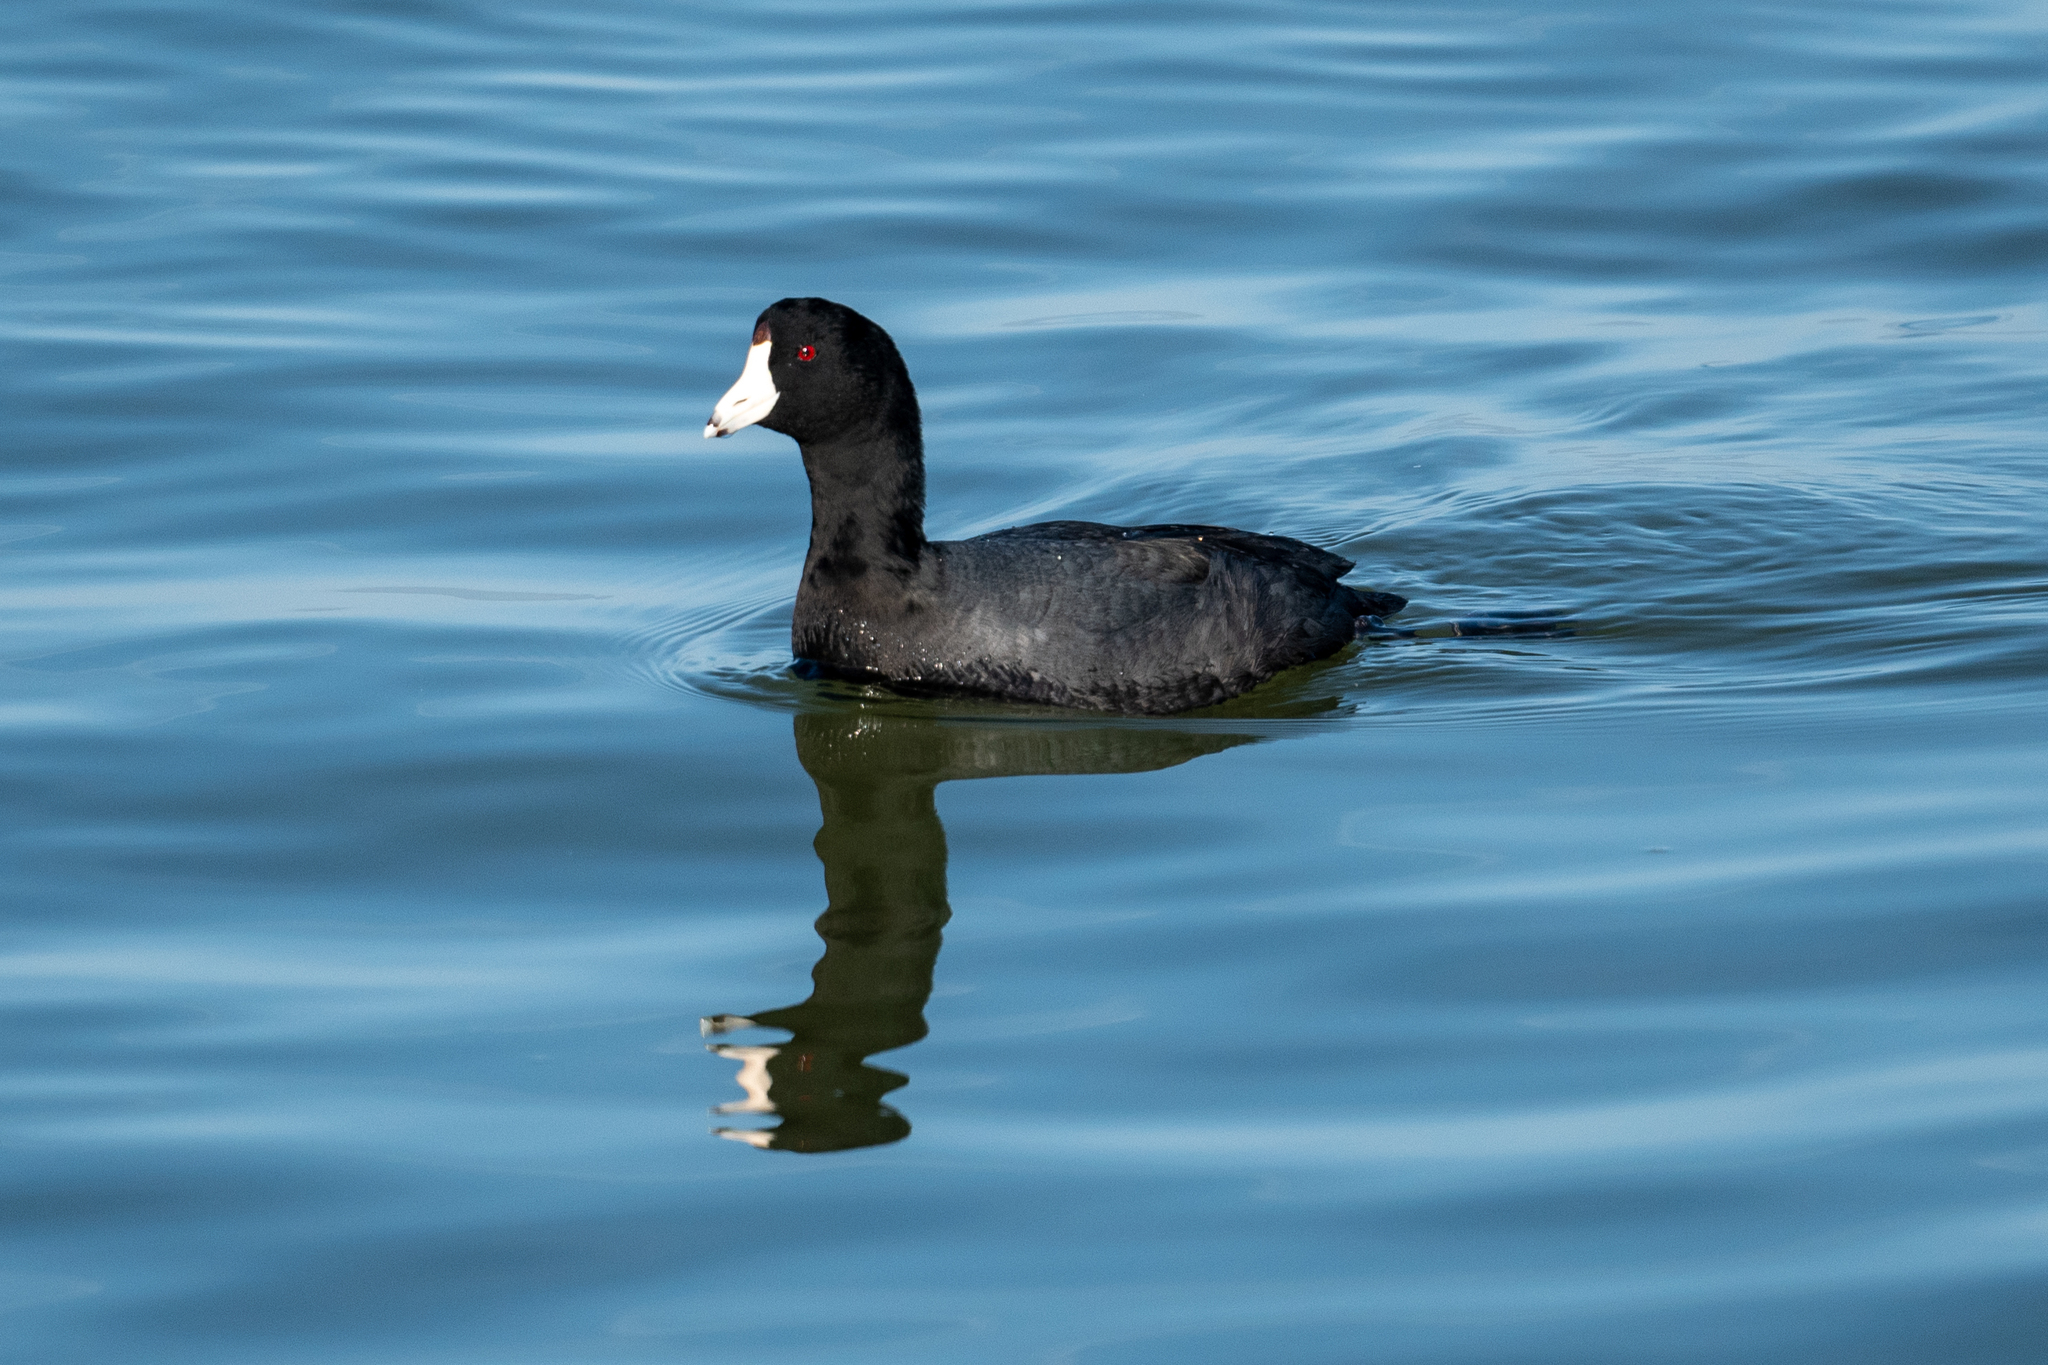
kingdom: Animalia
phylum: Chordata
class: Aves
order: Gruiformes
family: Rallidae
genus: Fulica
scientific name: Fulica americana
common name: American coot
